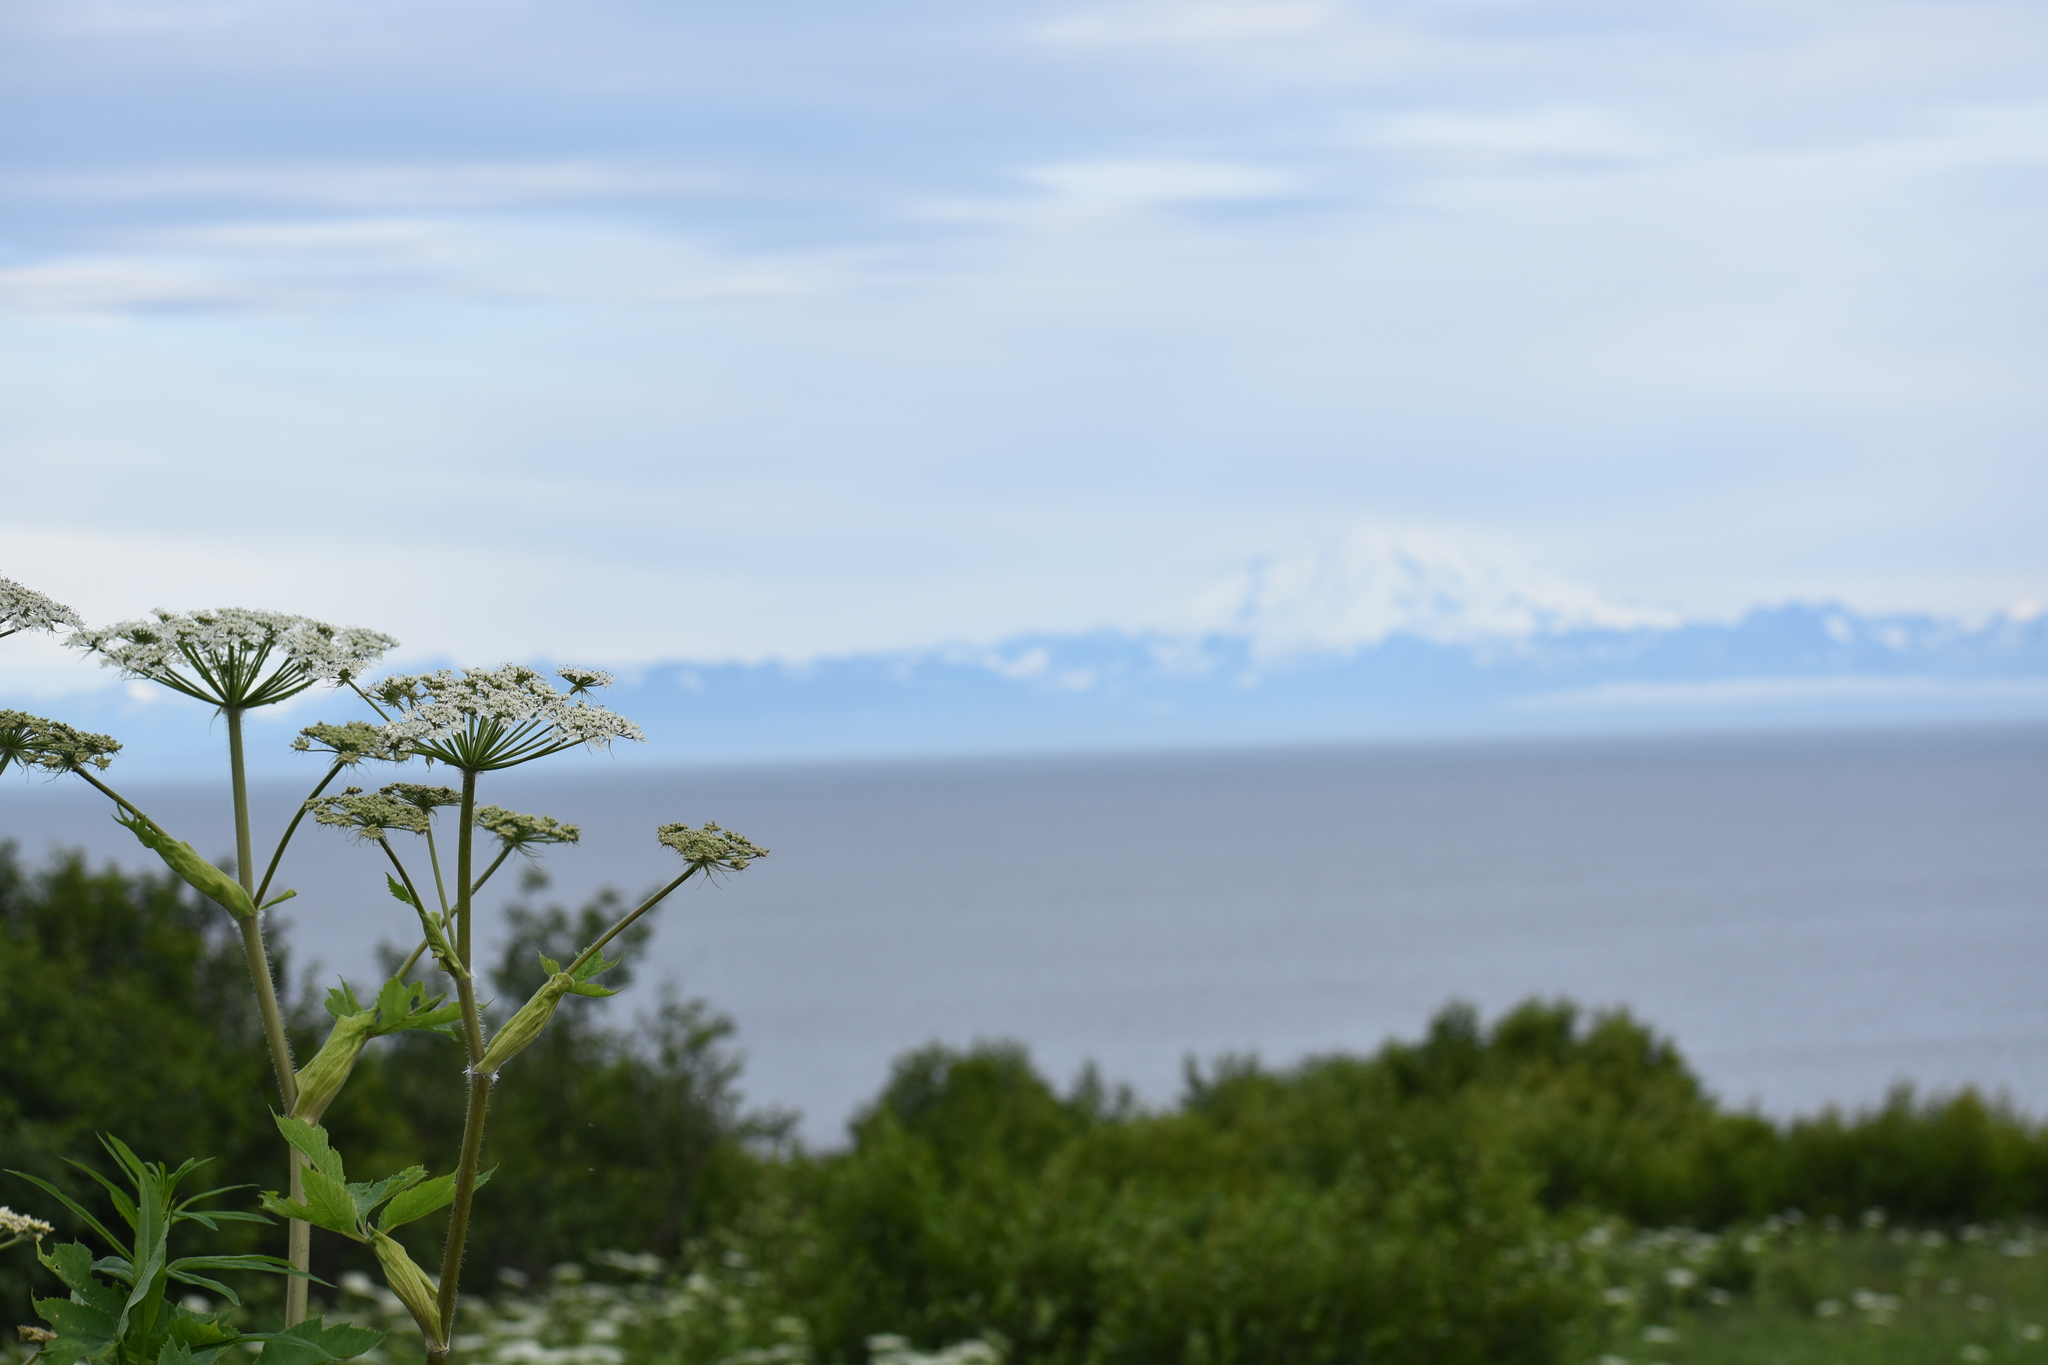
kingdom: Plantae
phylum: Tracheophyta
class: Magnoliopsida
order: Apiales
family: Apiaceae
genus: Heracleum
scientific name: Heracleum maximum
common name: American cow parsnip
